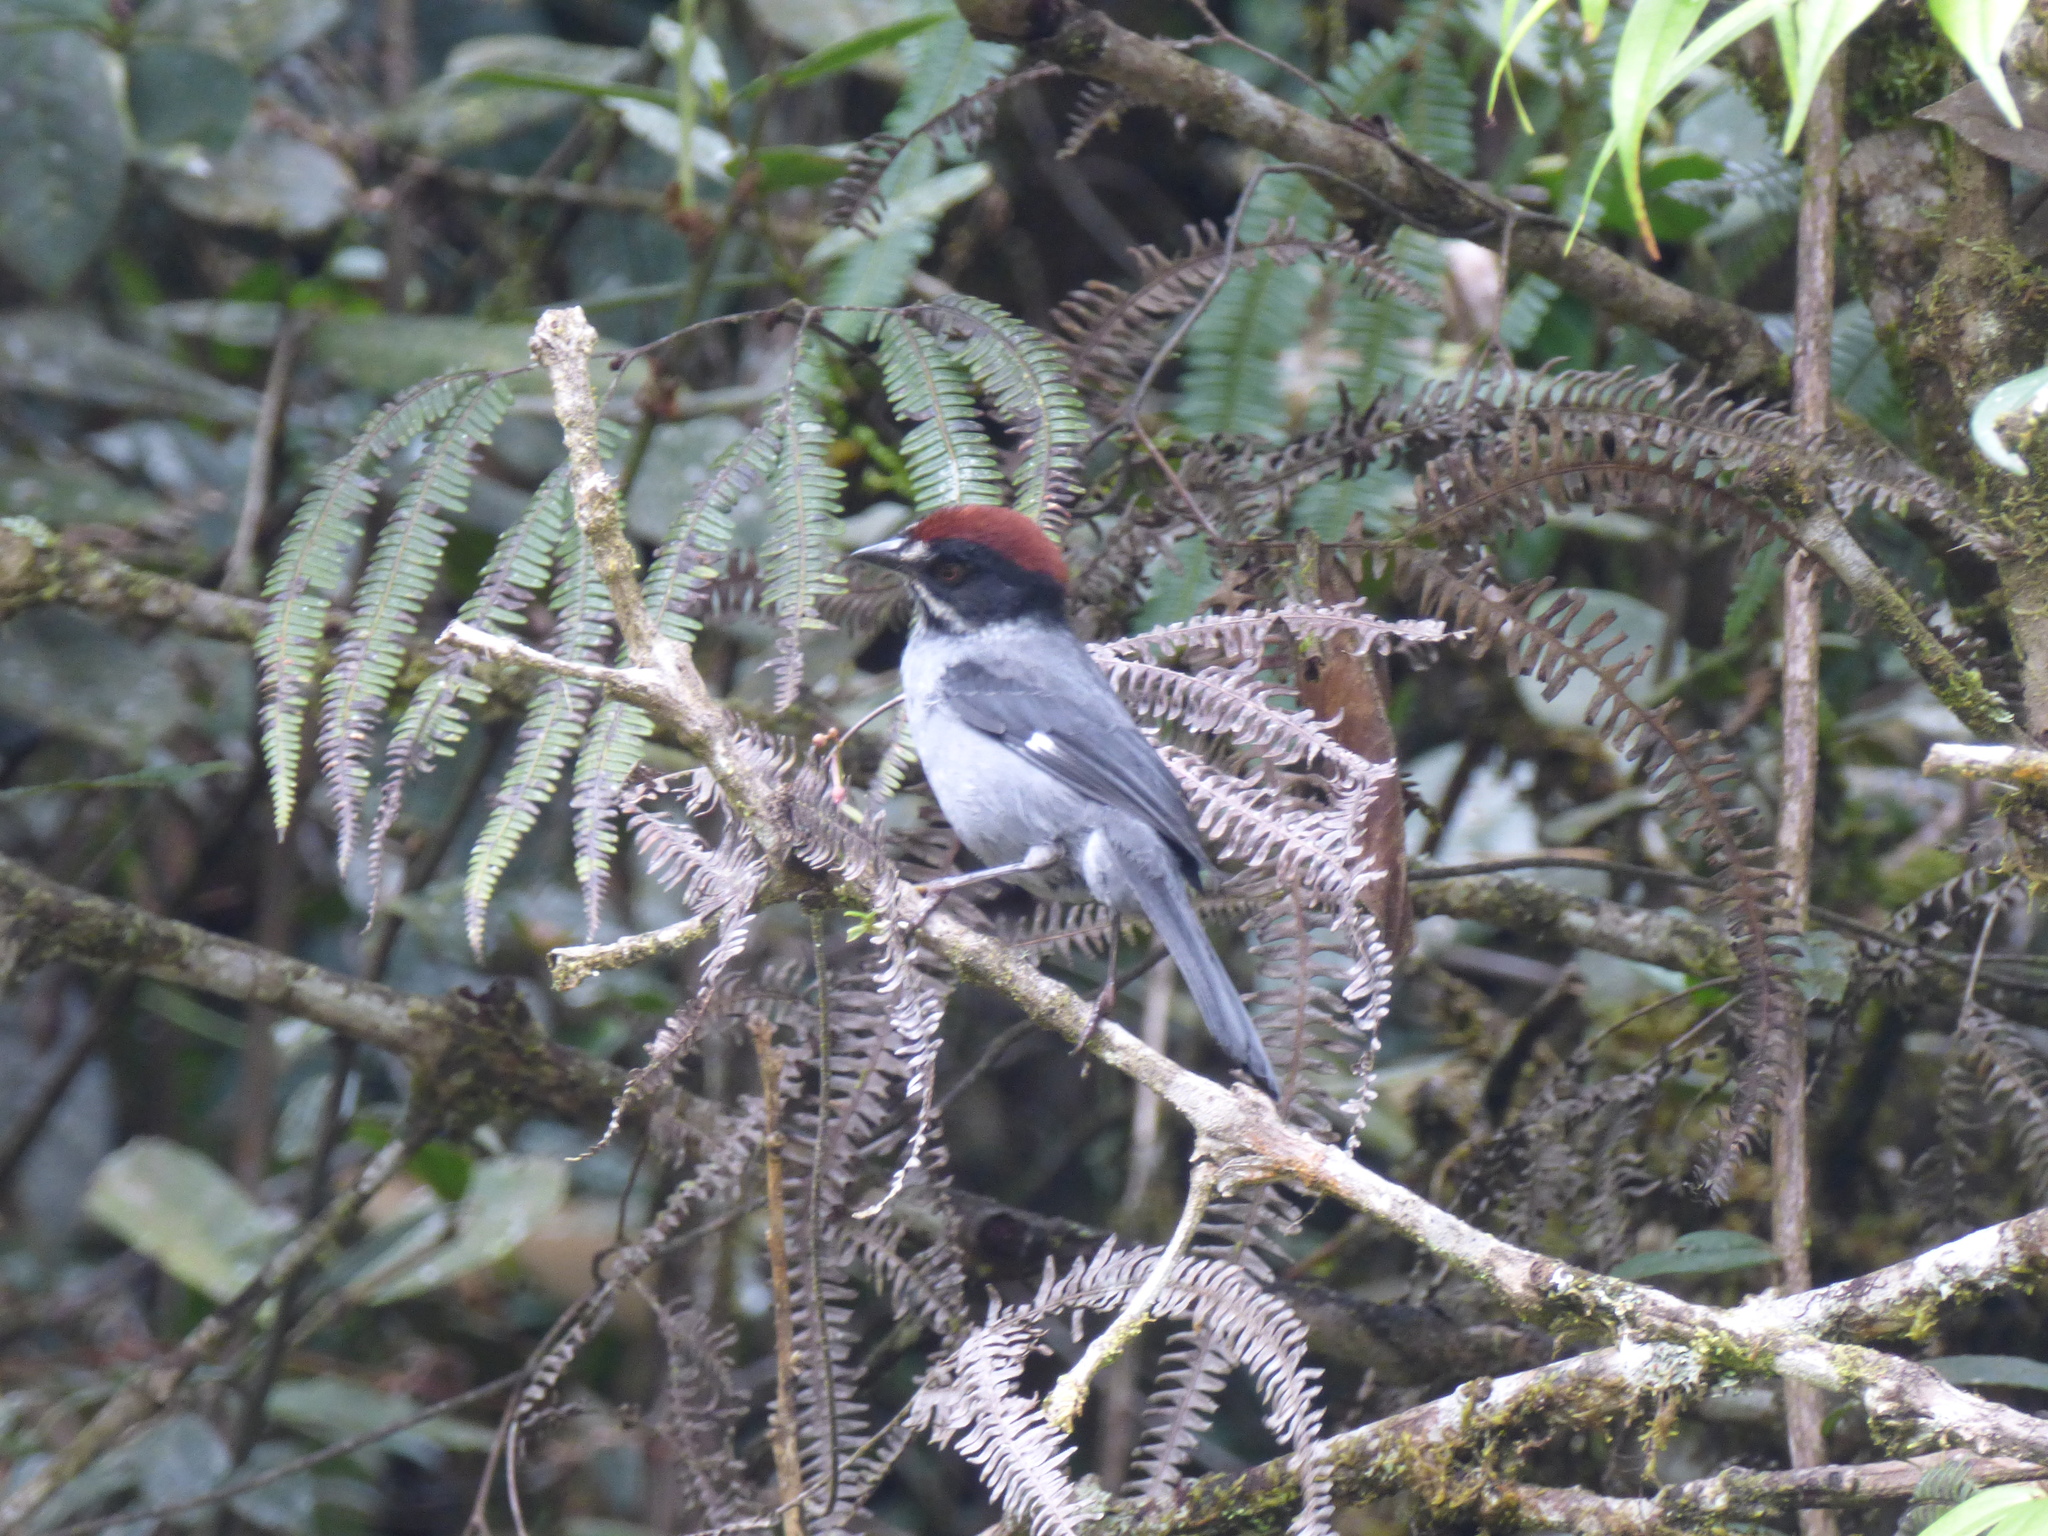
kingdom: Animalia
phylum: Chordata
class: Aves
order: Passeriformes
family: Passerellidae
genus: Atlapetes
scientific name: Atlapetes schistaceus
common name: Slaty brushfinch
